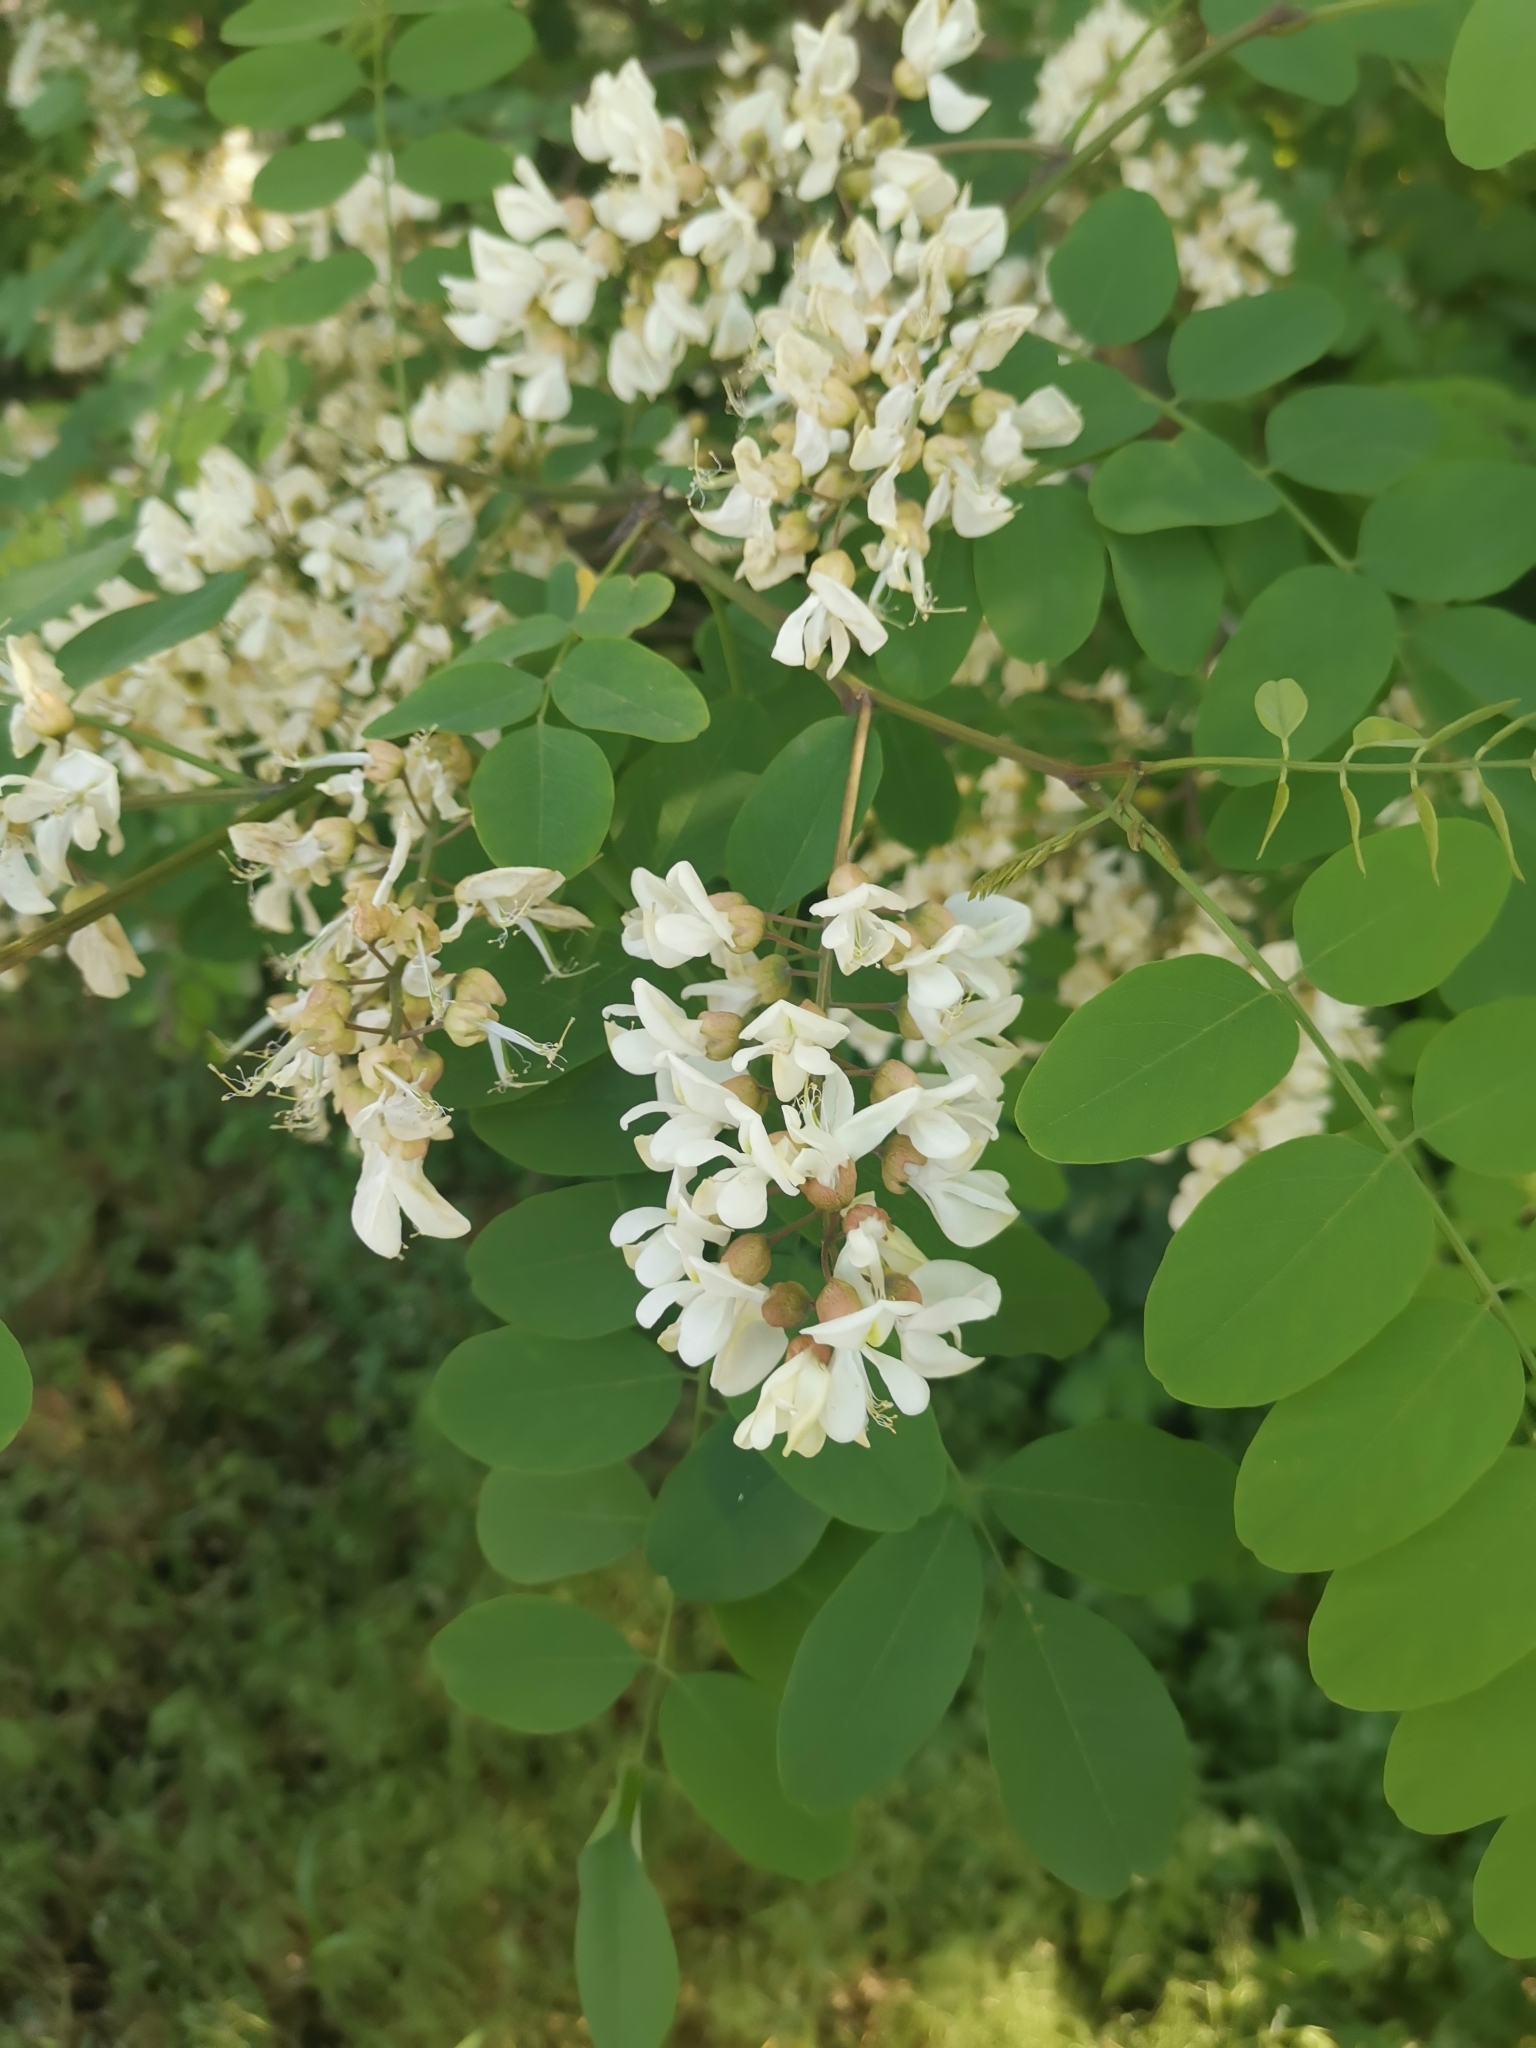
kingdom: Plantae
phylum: Tracheophyta
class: Magnoliopsida
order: Fabales
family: Fabaceae
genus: Robinia
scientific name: Robinia pseudoacacia
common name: Black locust
